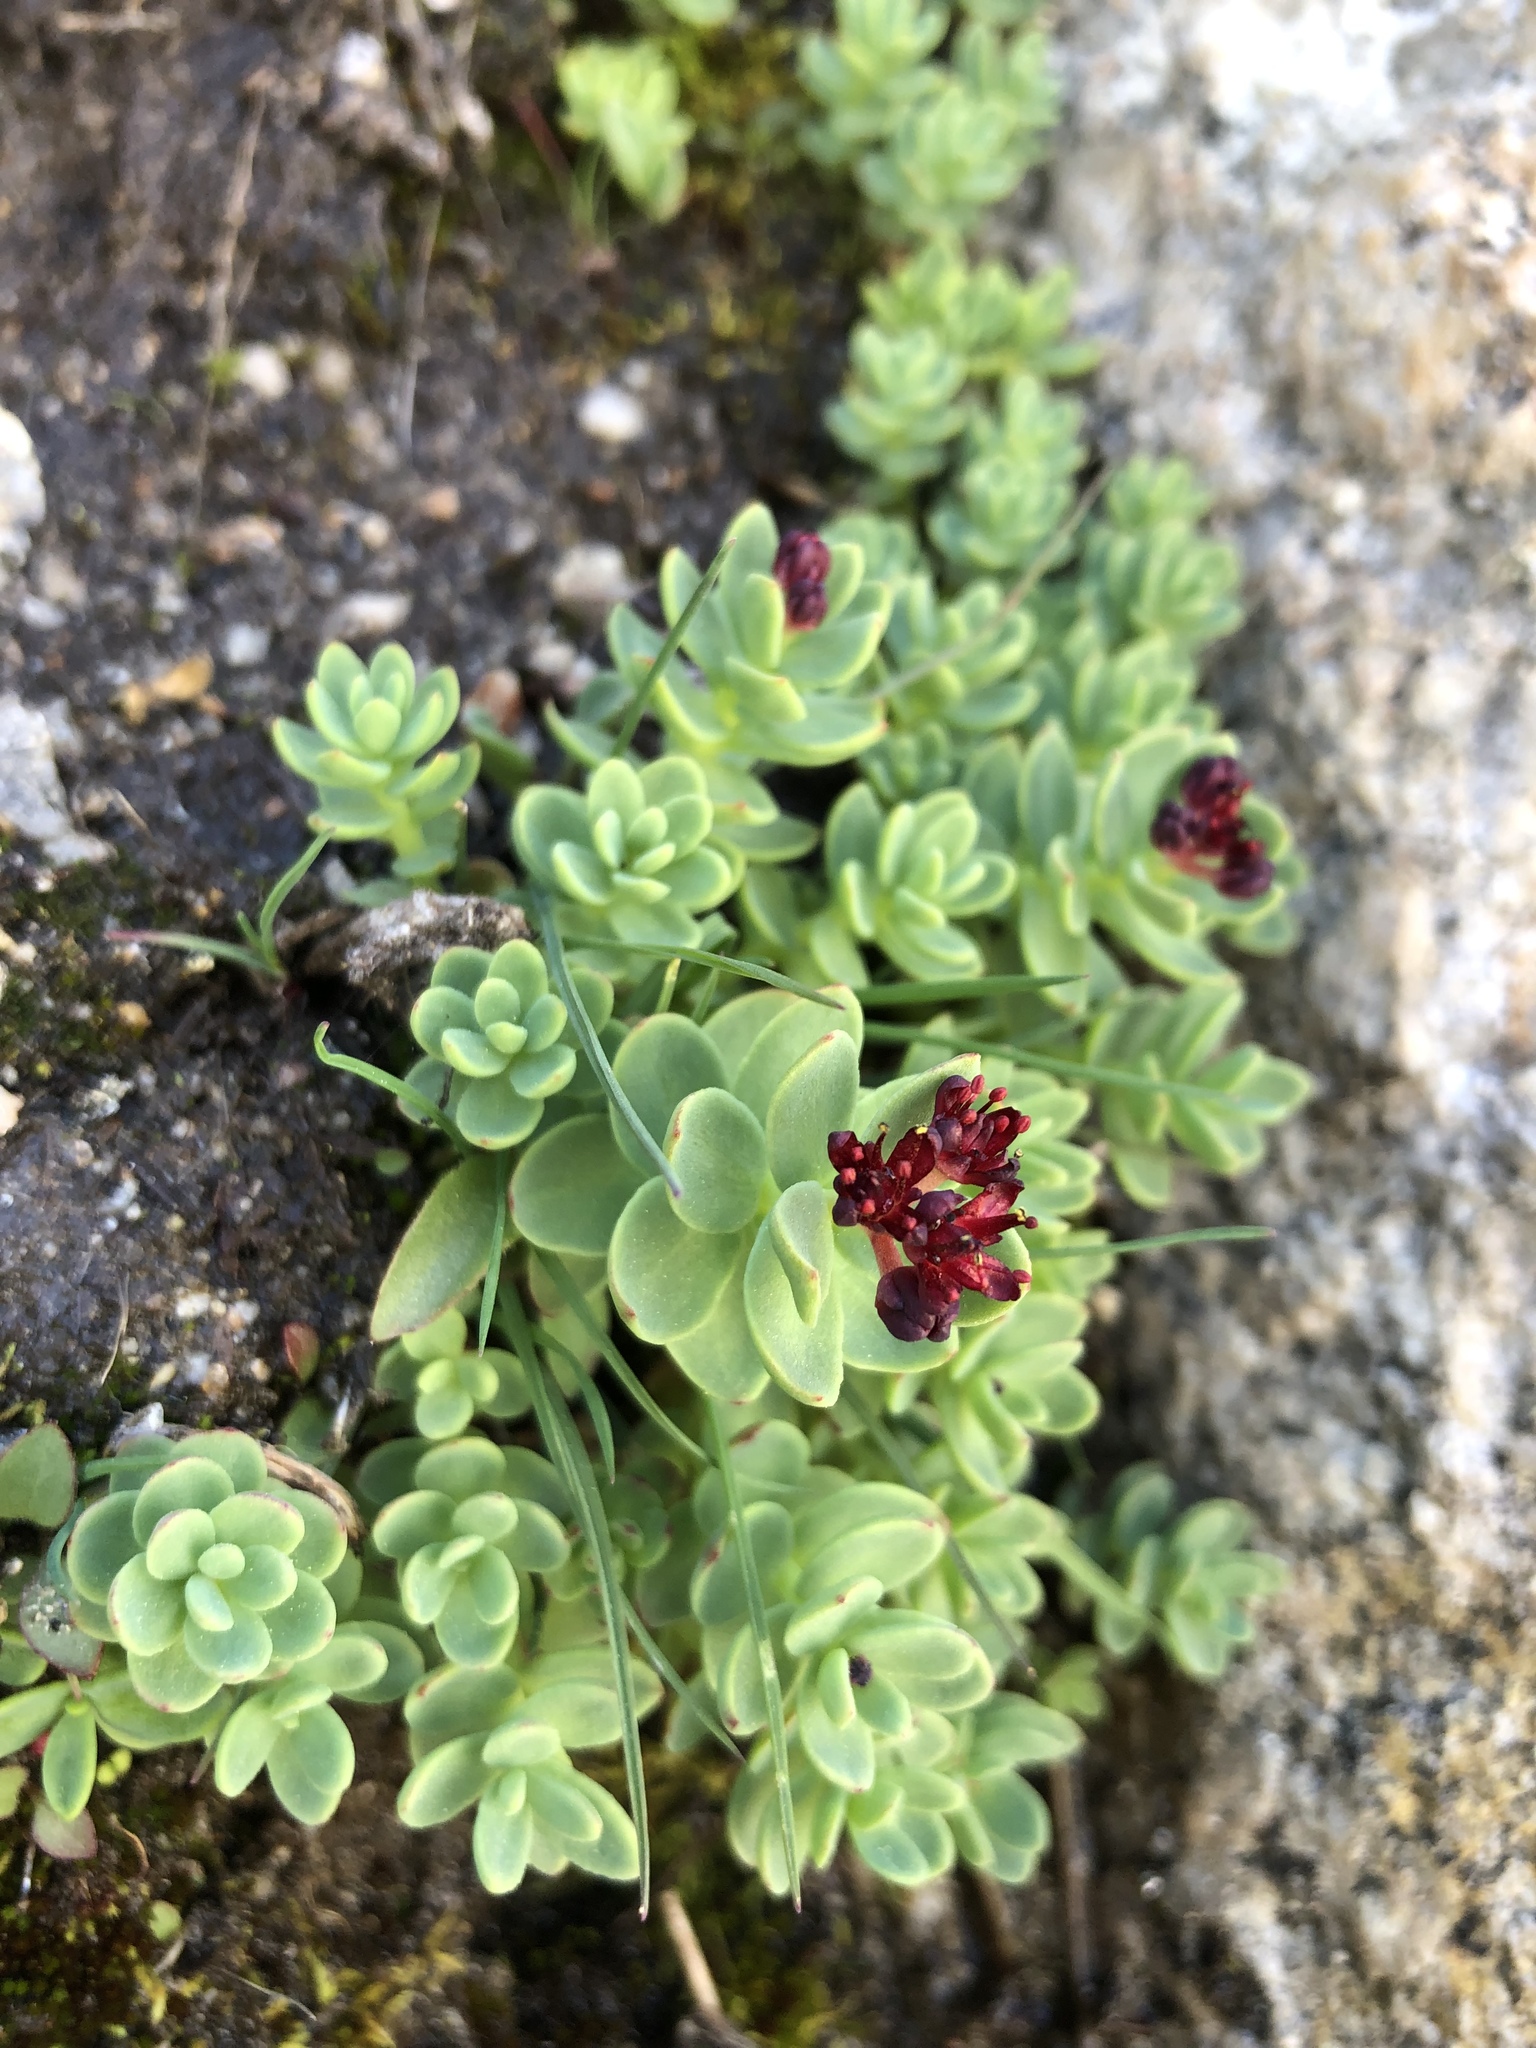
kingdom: Plantae
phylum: Tracheophyta
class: Magnoliopsida
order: Saxifragales
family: Crassulaceae
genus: Rhodiola
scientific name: Rhodiola integrifolia
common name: Western roseroot
